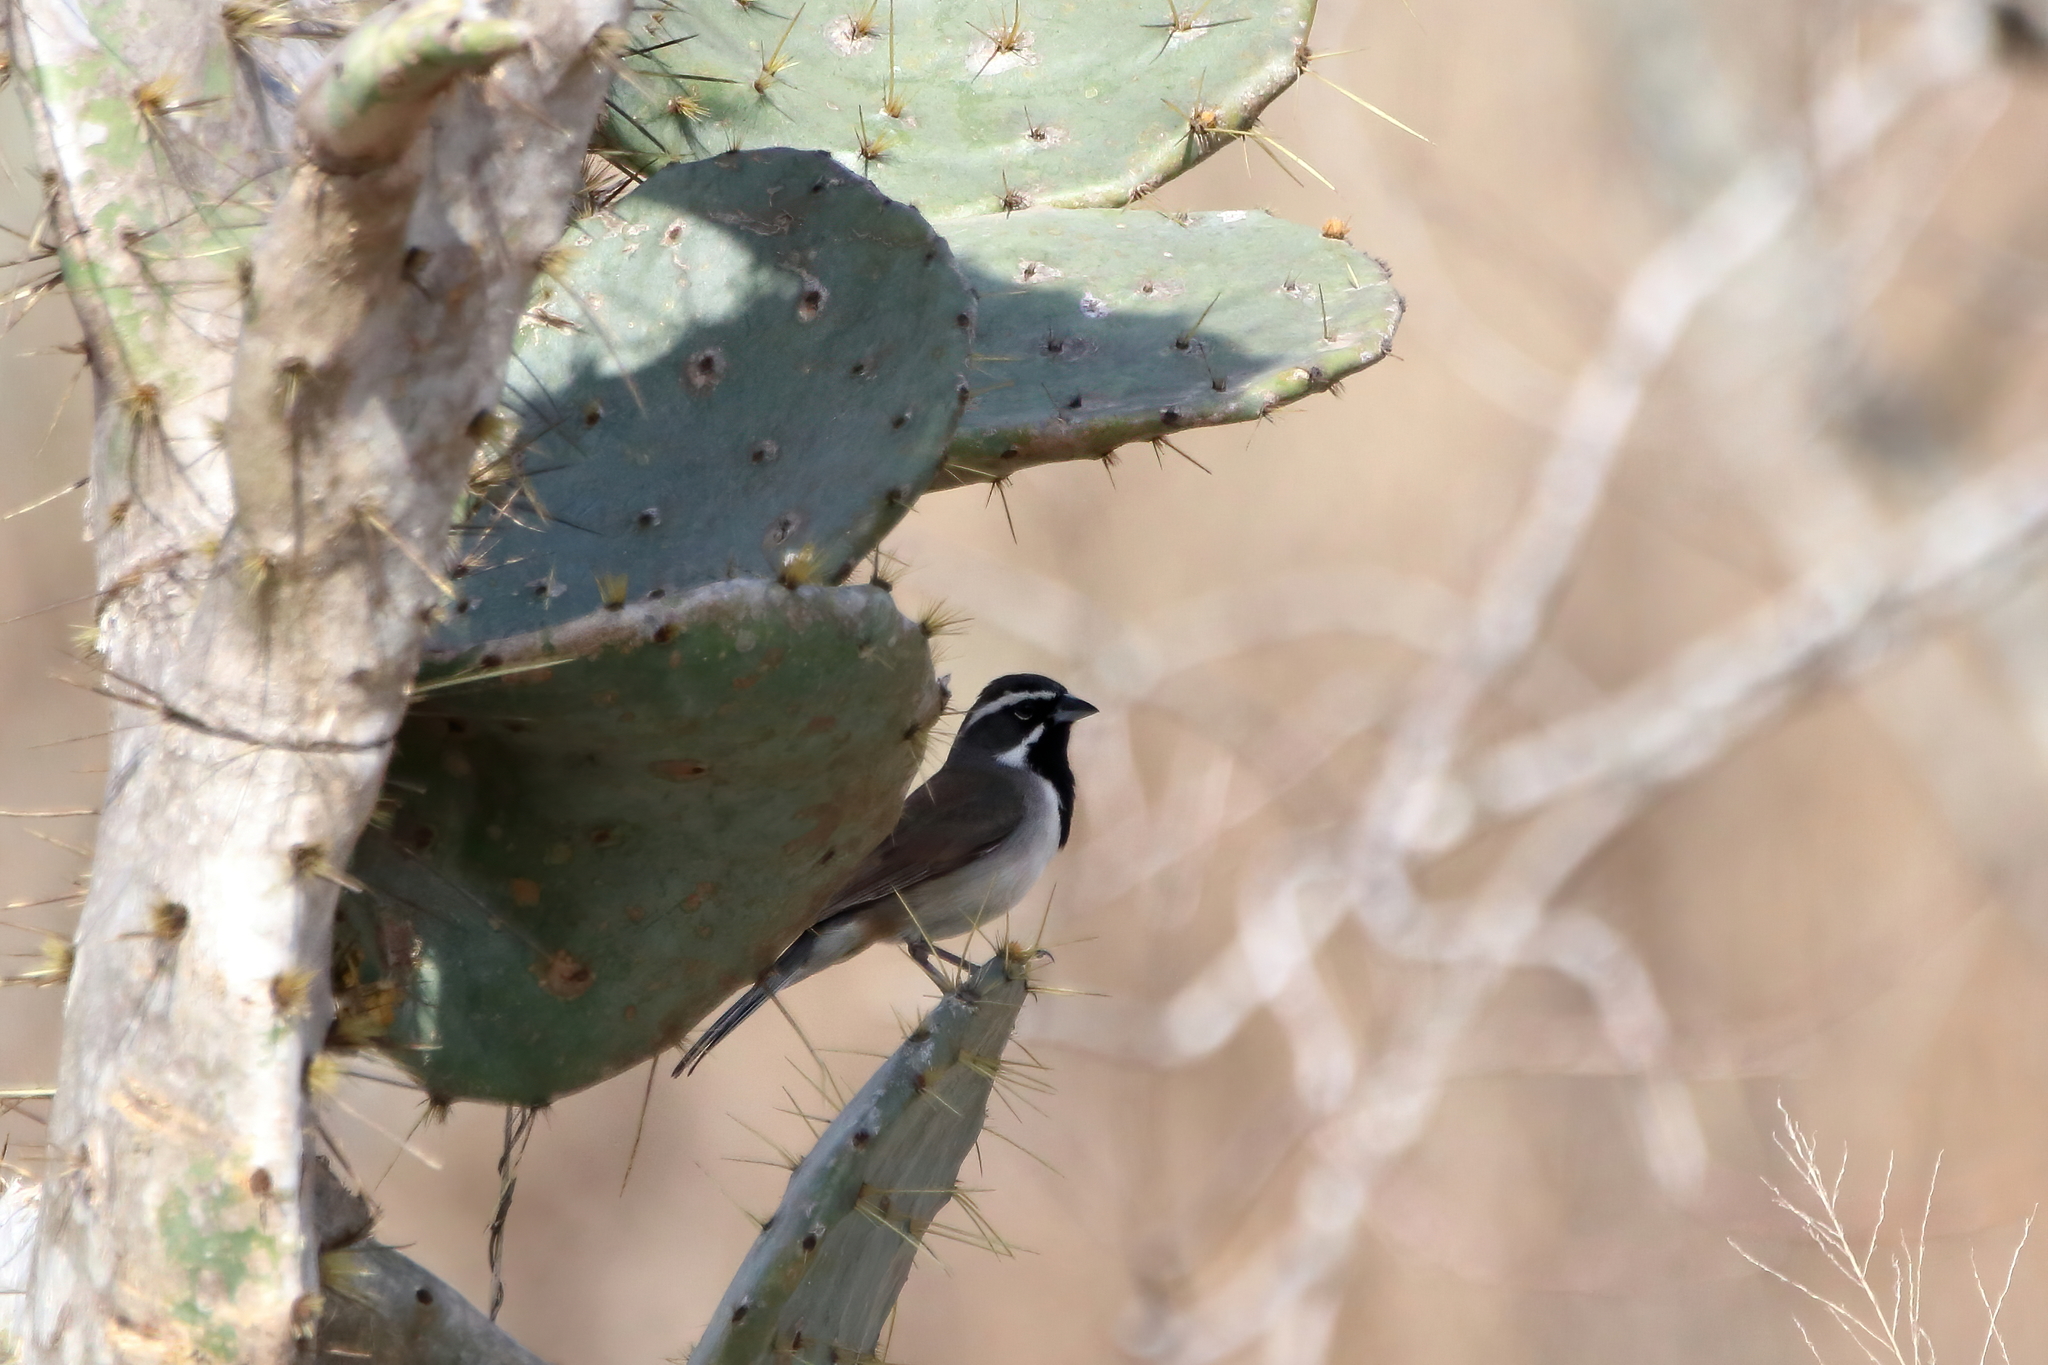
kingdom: Animalia
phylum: Chordata
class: Aves
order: Passeriformes
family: Passerellidae
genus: Amphispiza
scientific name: Amphispiza bilineata
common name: Black-throated sparrow
